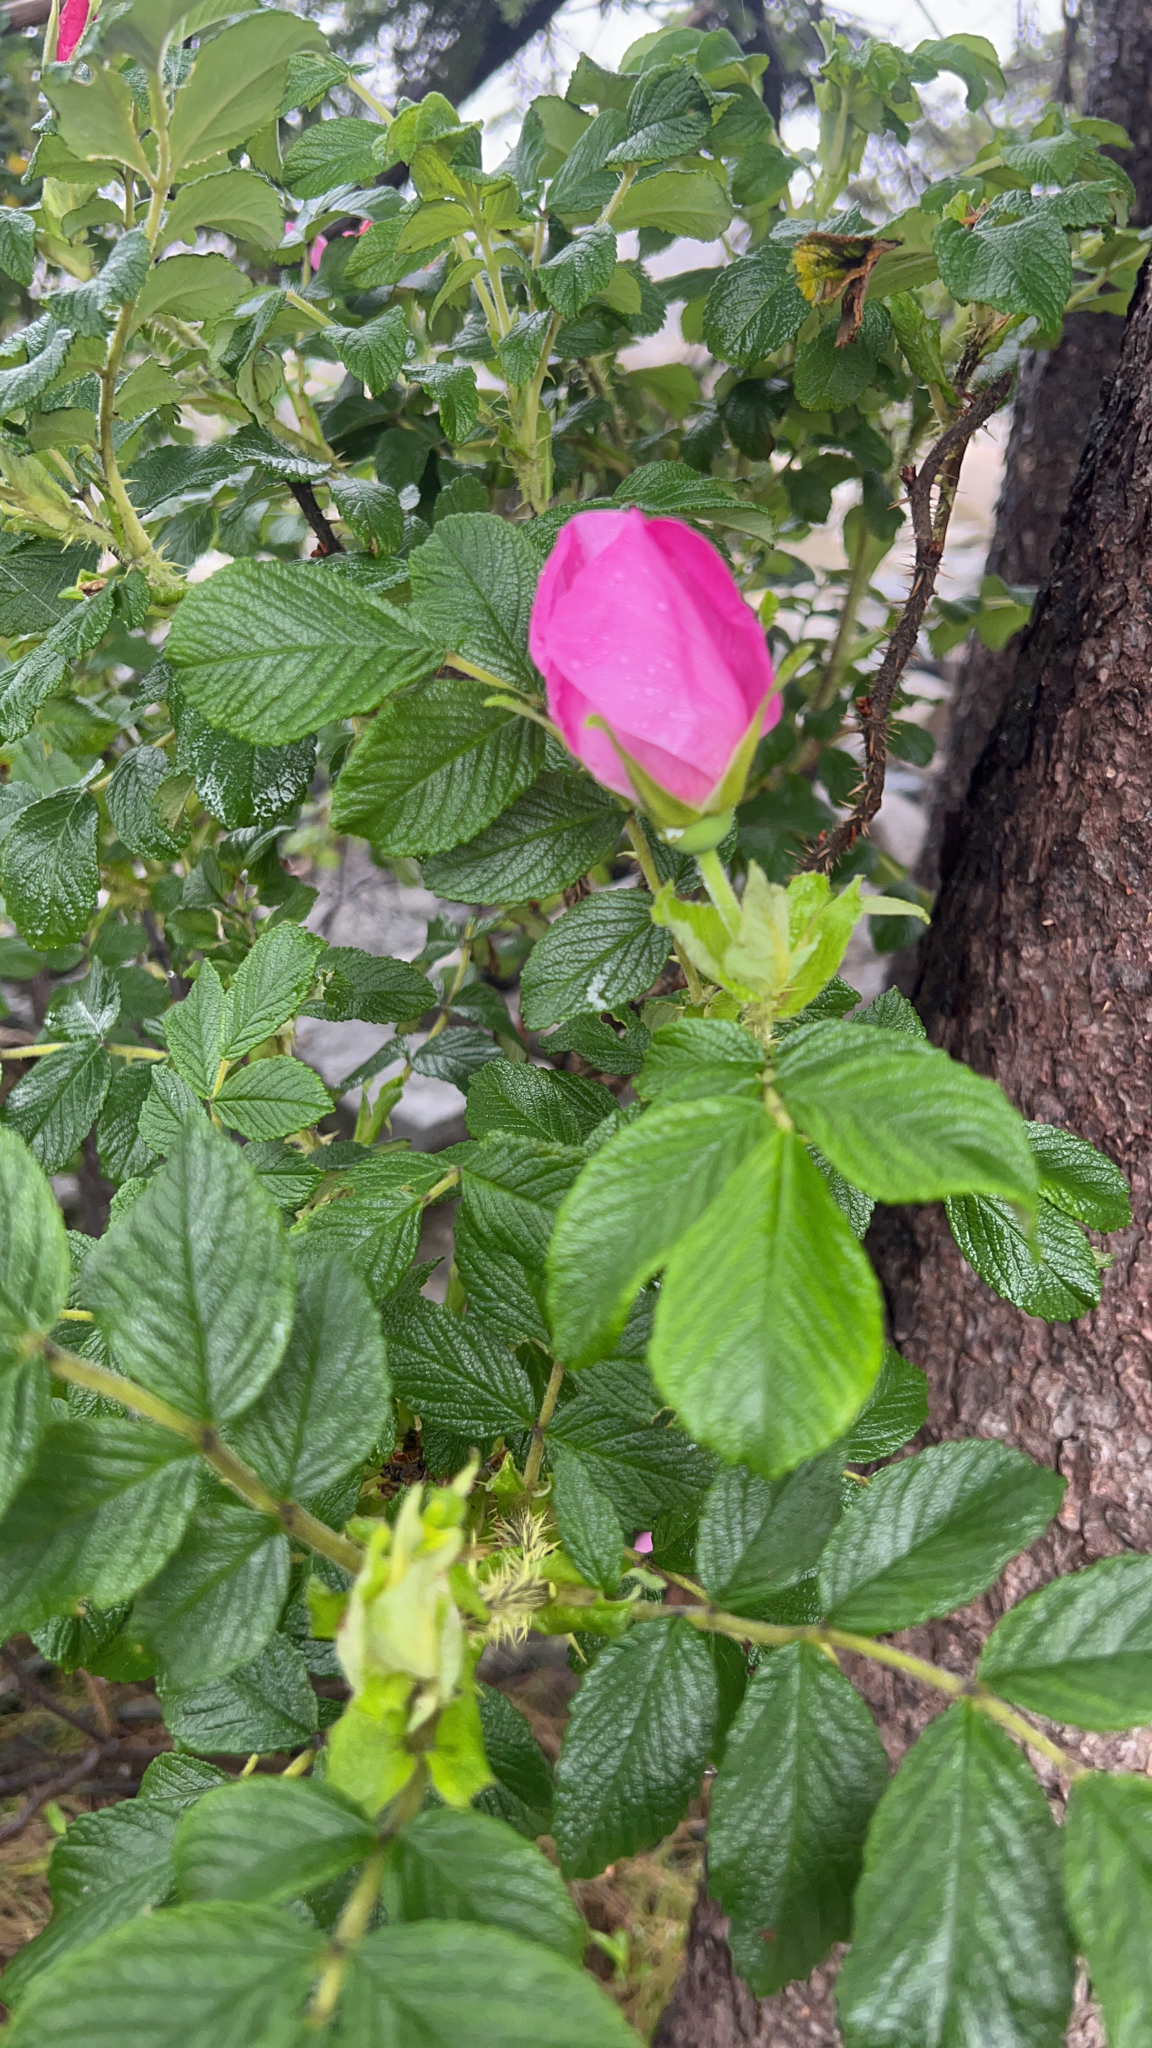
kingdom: Plantae
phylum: Tracheophyta
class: Magnoliopsida
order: Rosales
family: Rosaceae
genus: Rosa
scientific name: Rosa rugosa
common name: Japanese rose
